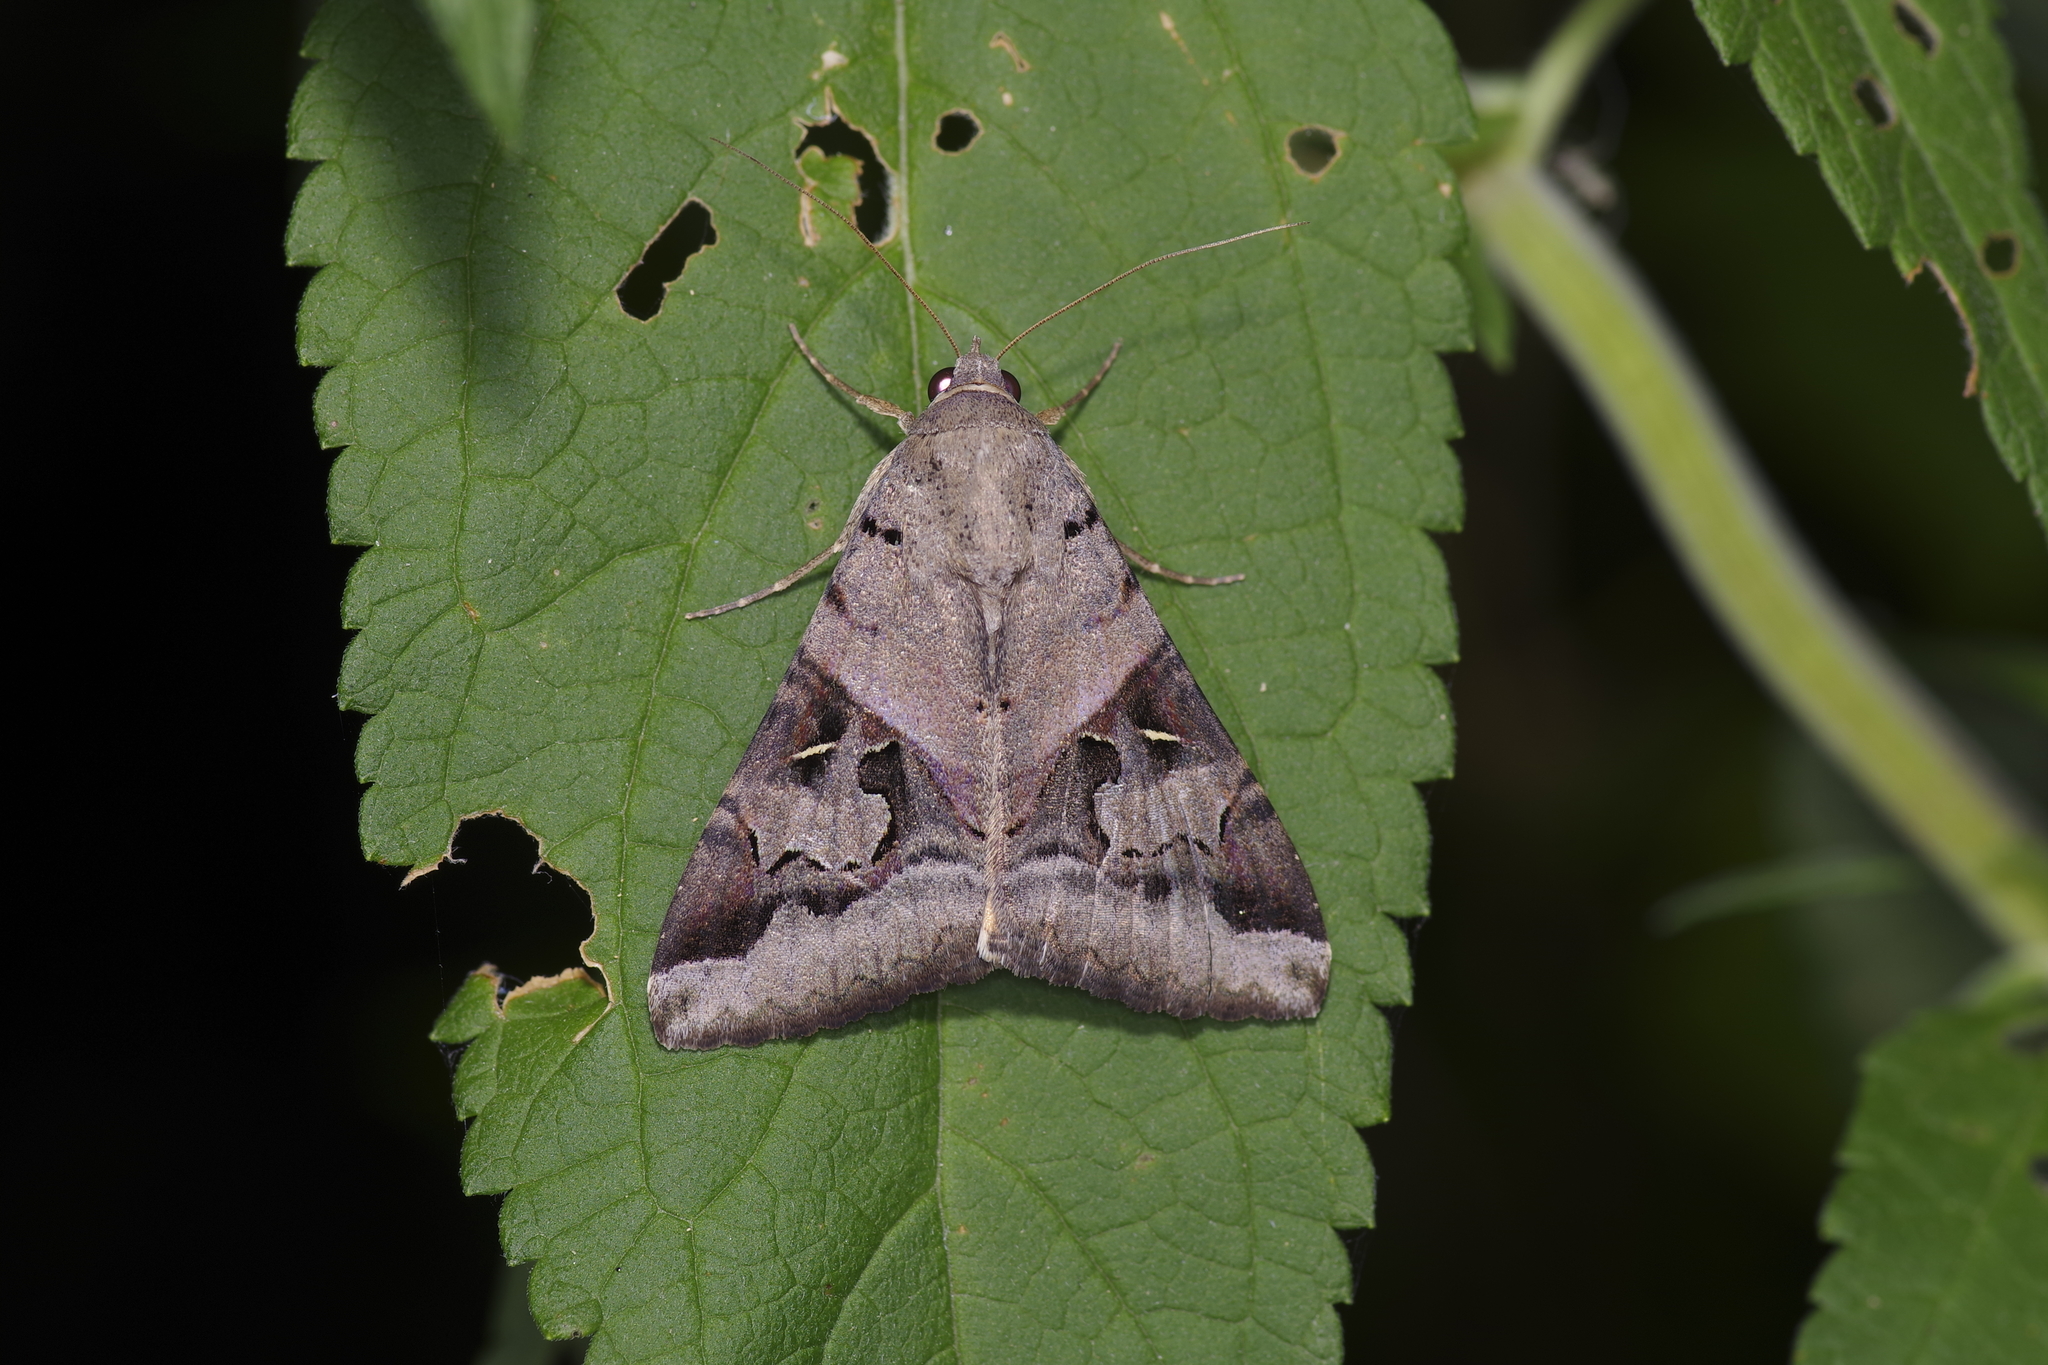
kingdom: Animalia
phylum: Arthropoda
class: Insecta
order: Lepidoptera
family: Erebidae
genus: Melipotis
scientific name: Melipotis indomita
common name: Moth
